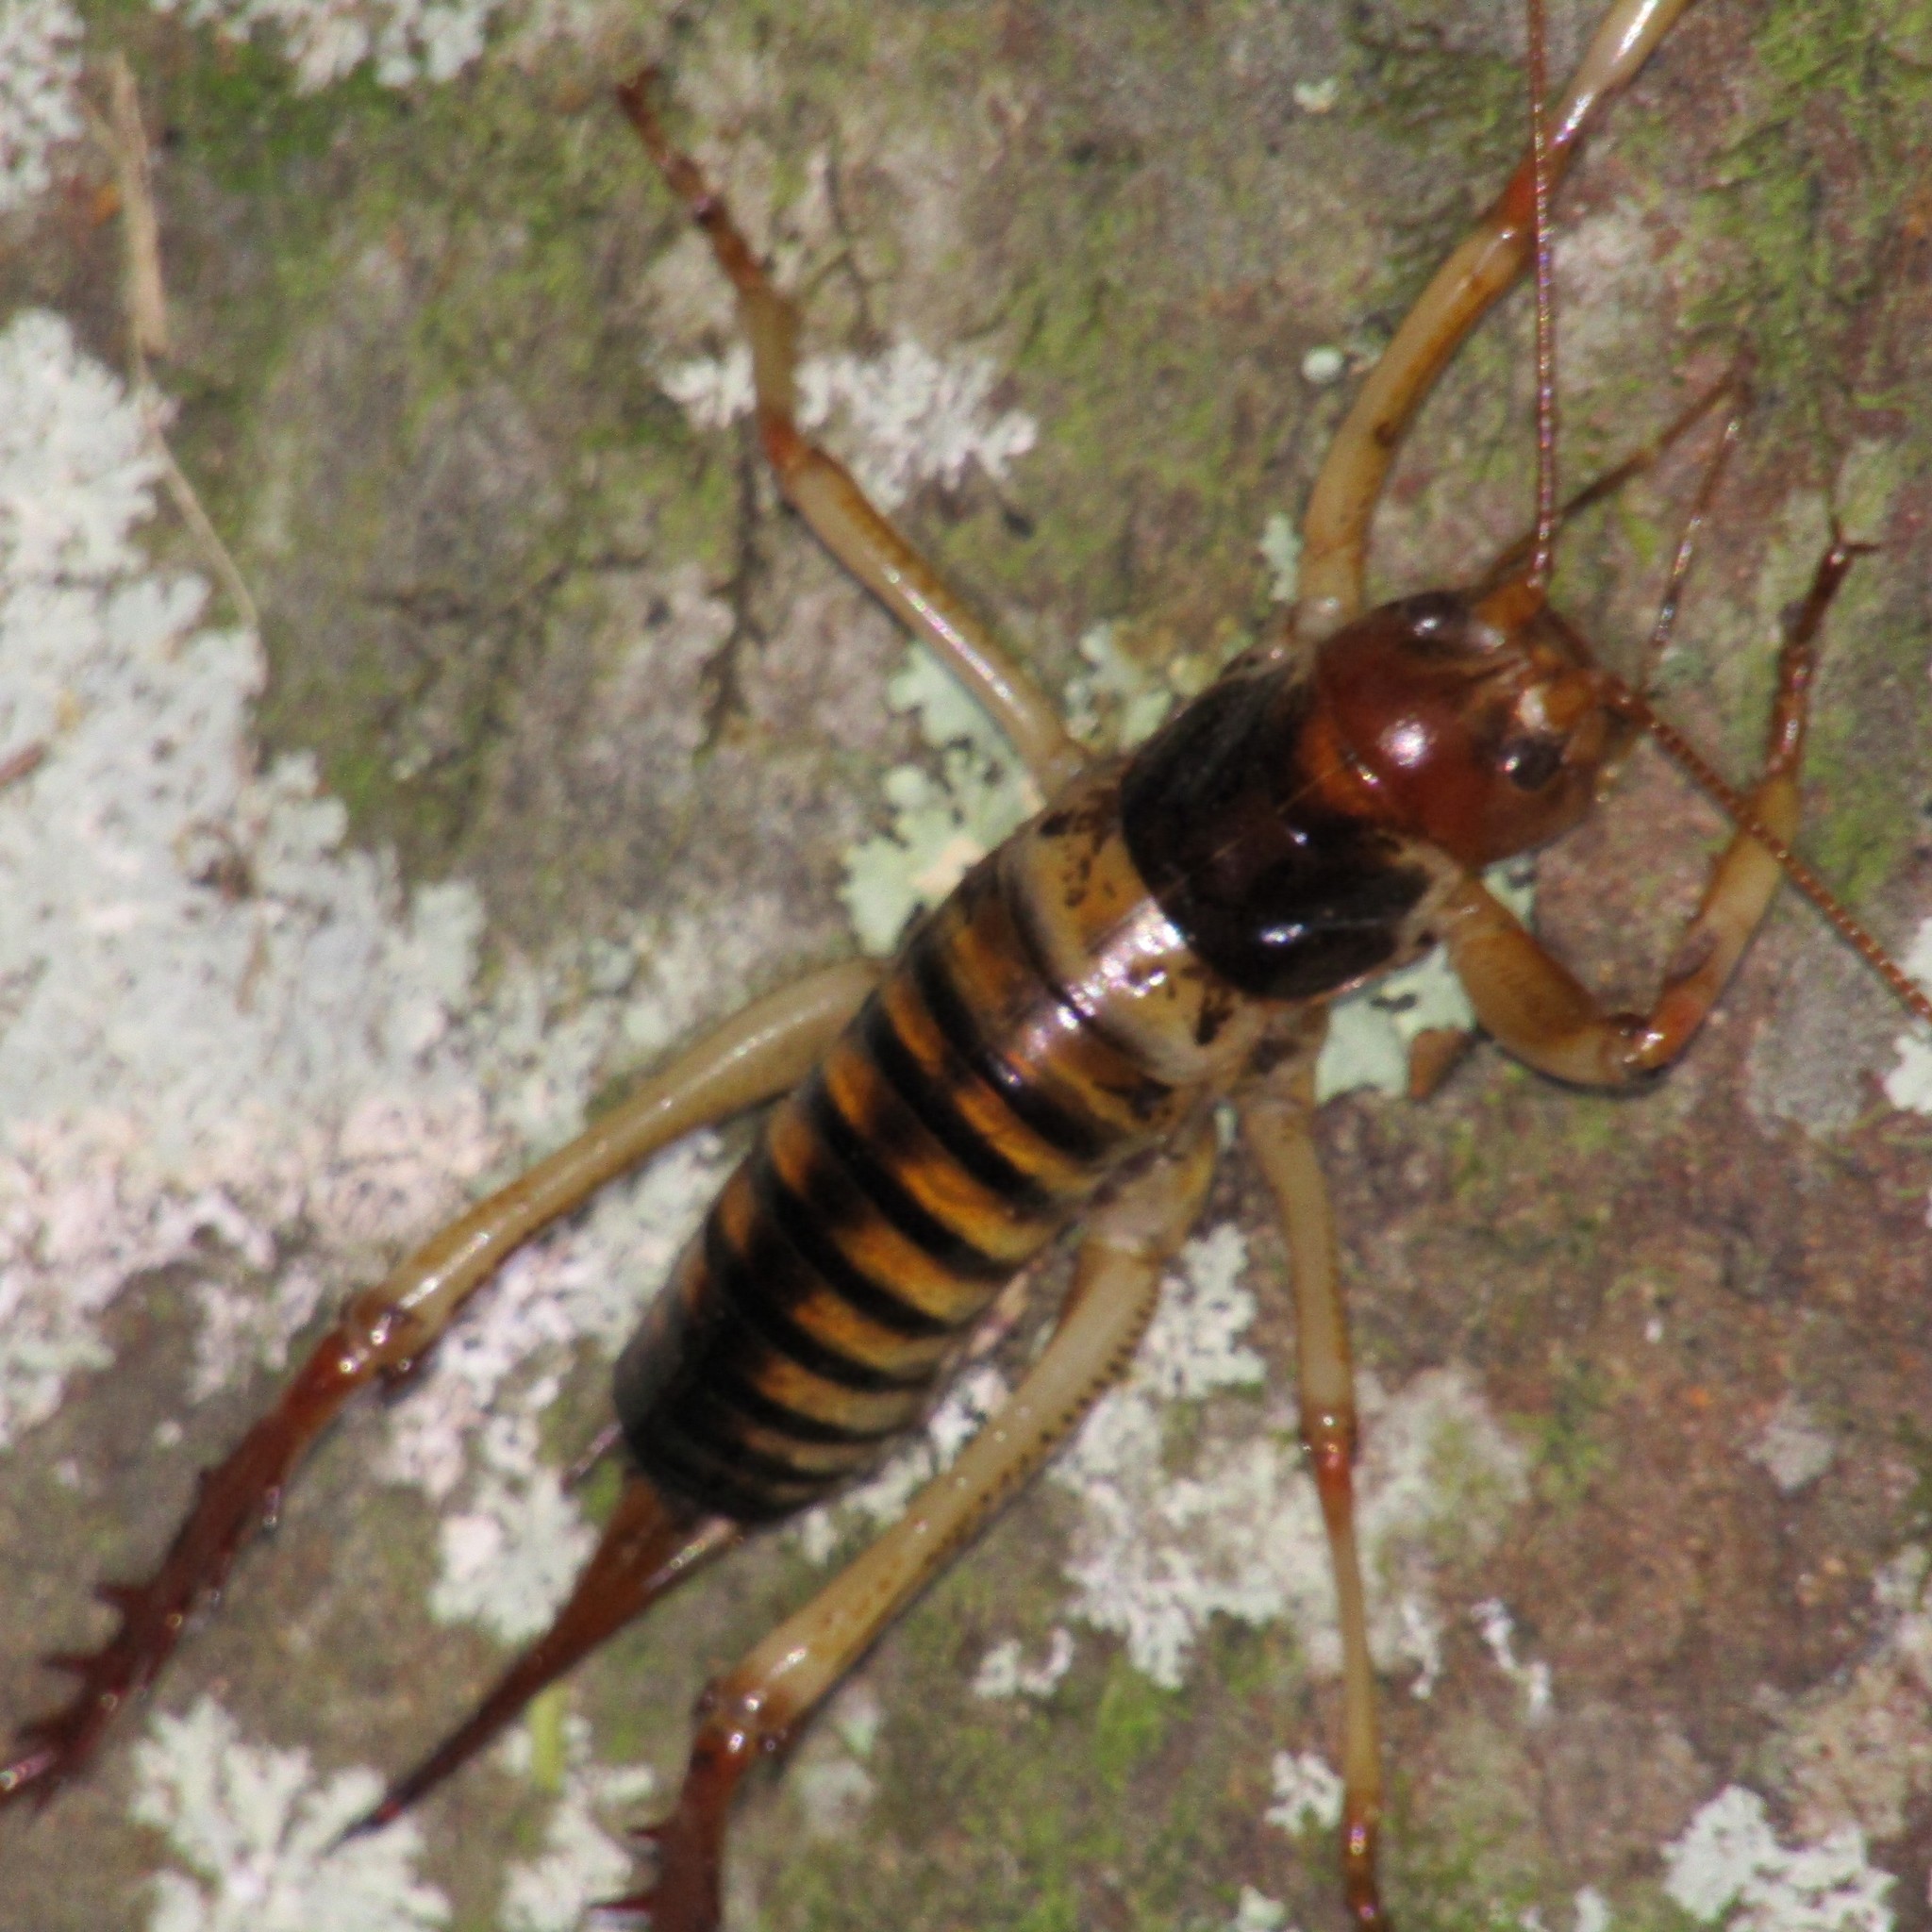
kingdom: Animalia
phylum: Arthropoda
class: Insecta
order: Orthoptera
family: Anostostomatidae
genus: Hemideina
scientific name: Hemideina crassidens
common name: Wellington tree weta
